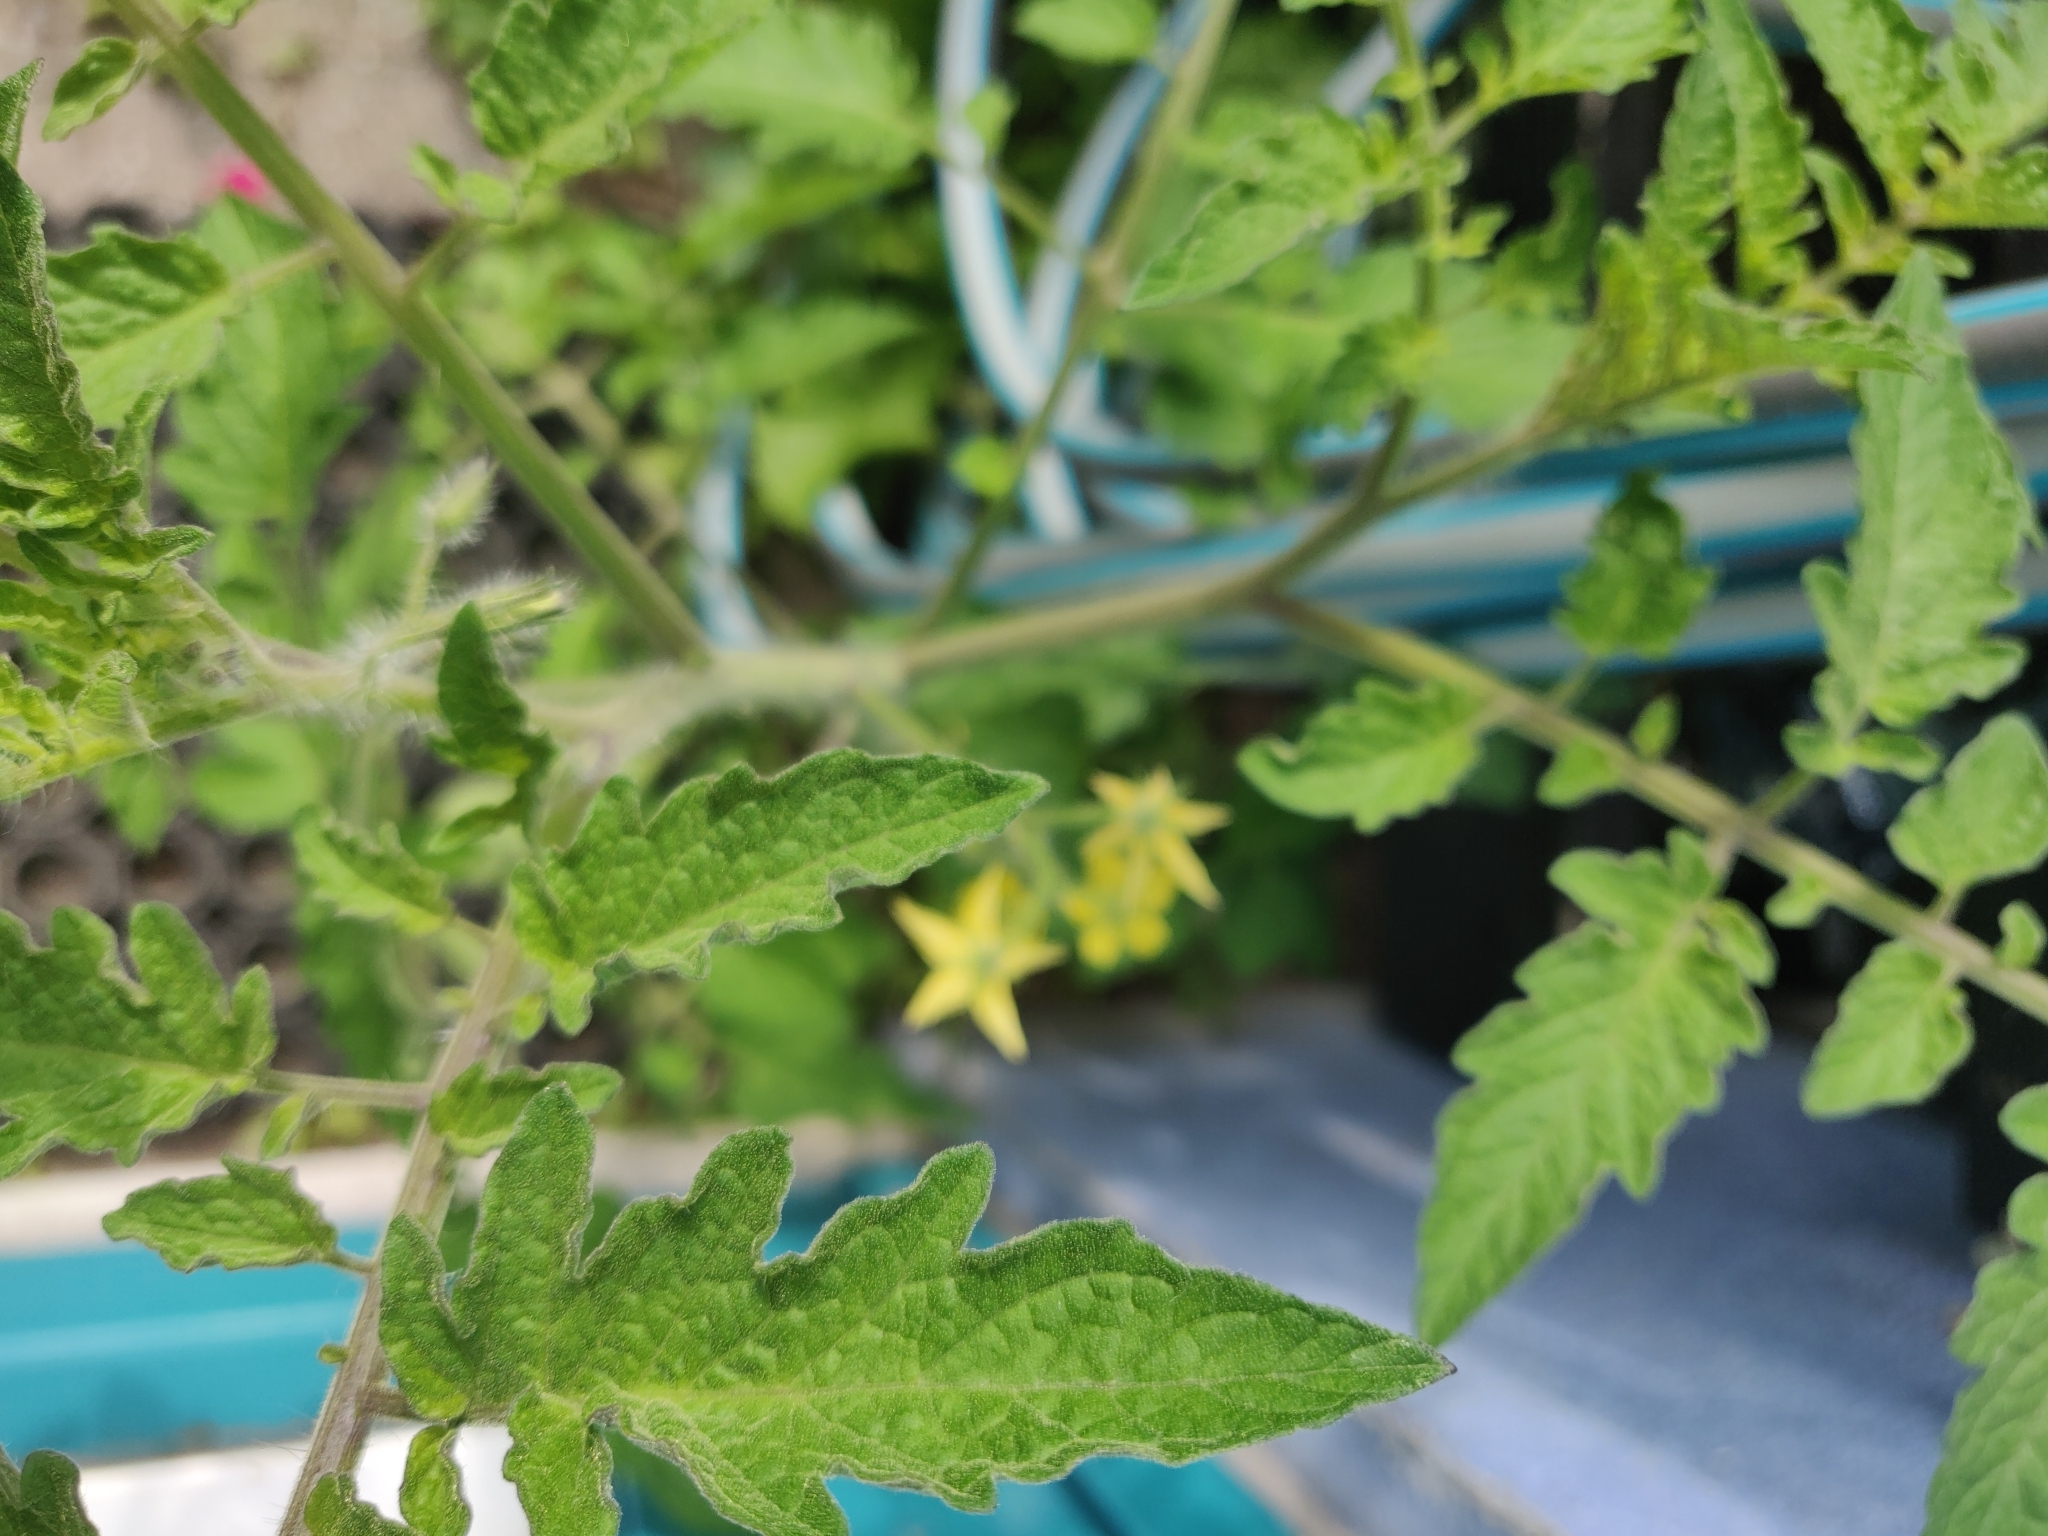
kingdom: Plantae
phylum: Tracheophyta
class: Magnoliopsida
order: Solanales
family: Solanaceae
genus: Solanum
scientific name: Solanum lycopersicum
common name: Garden tomato
